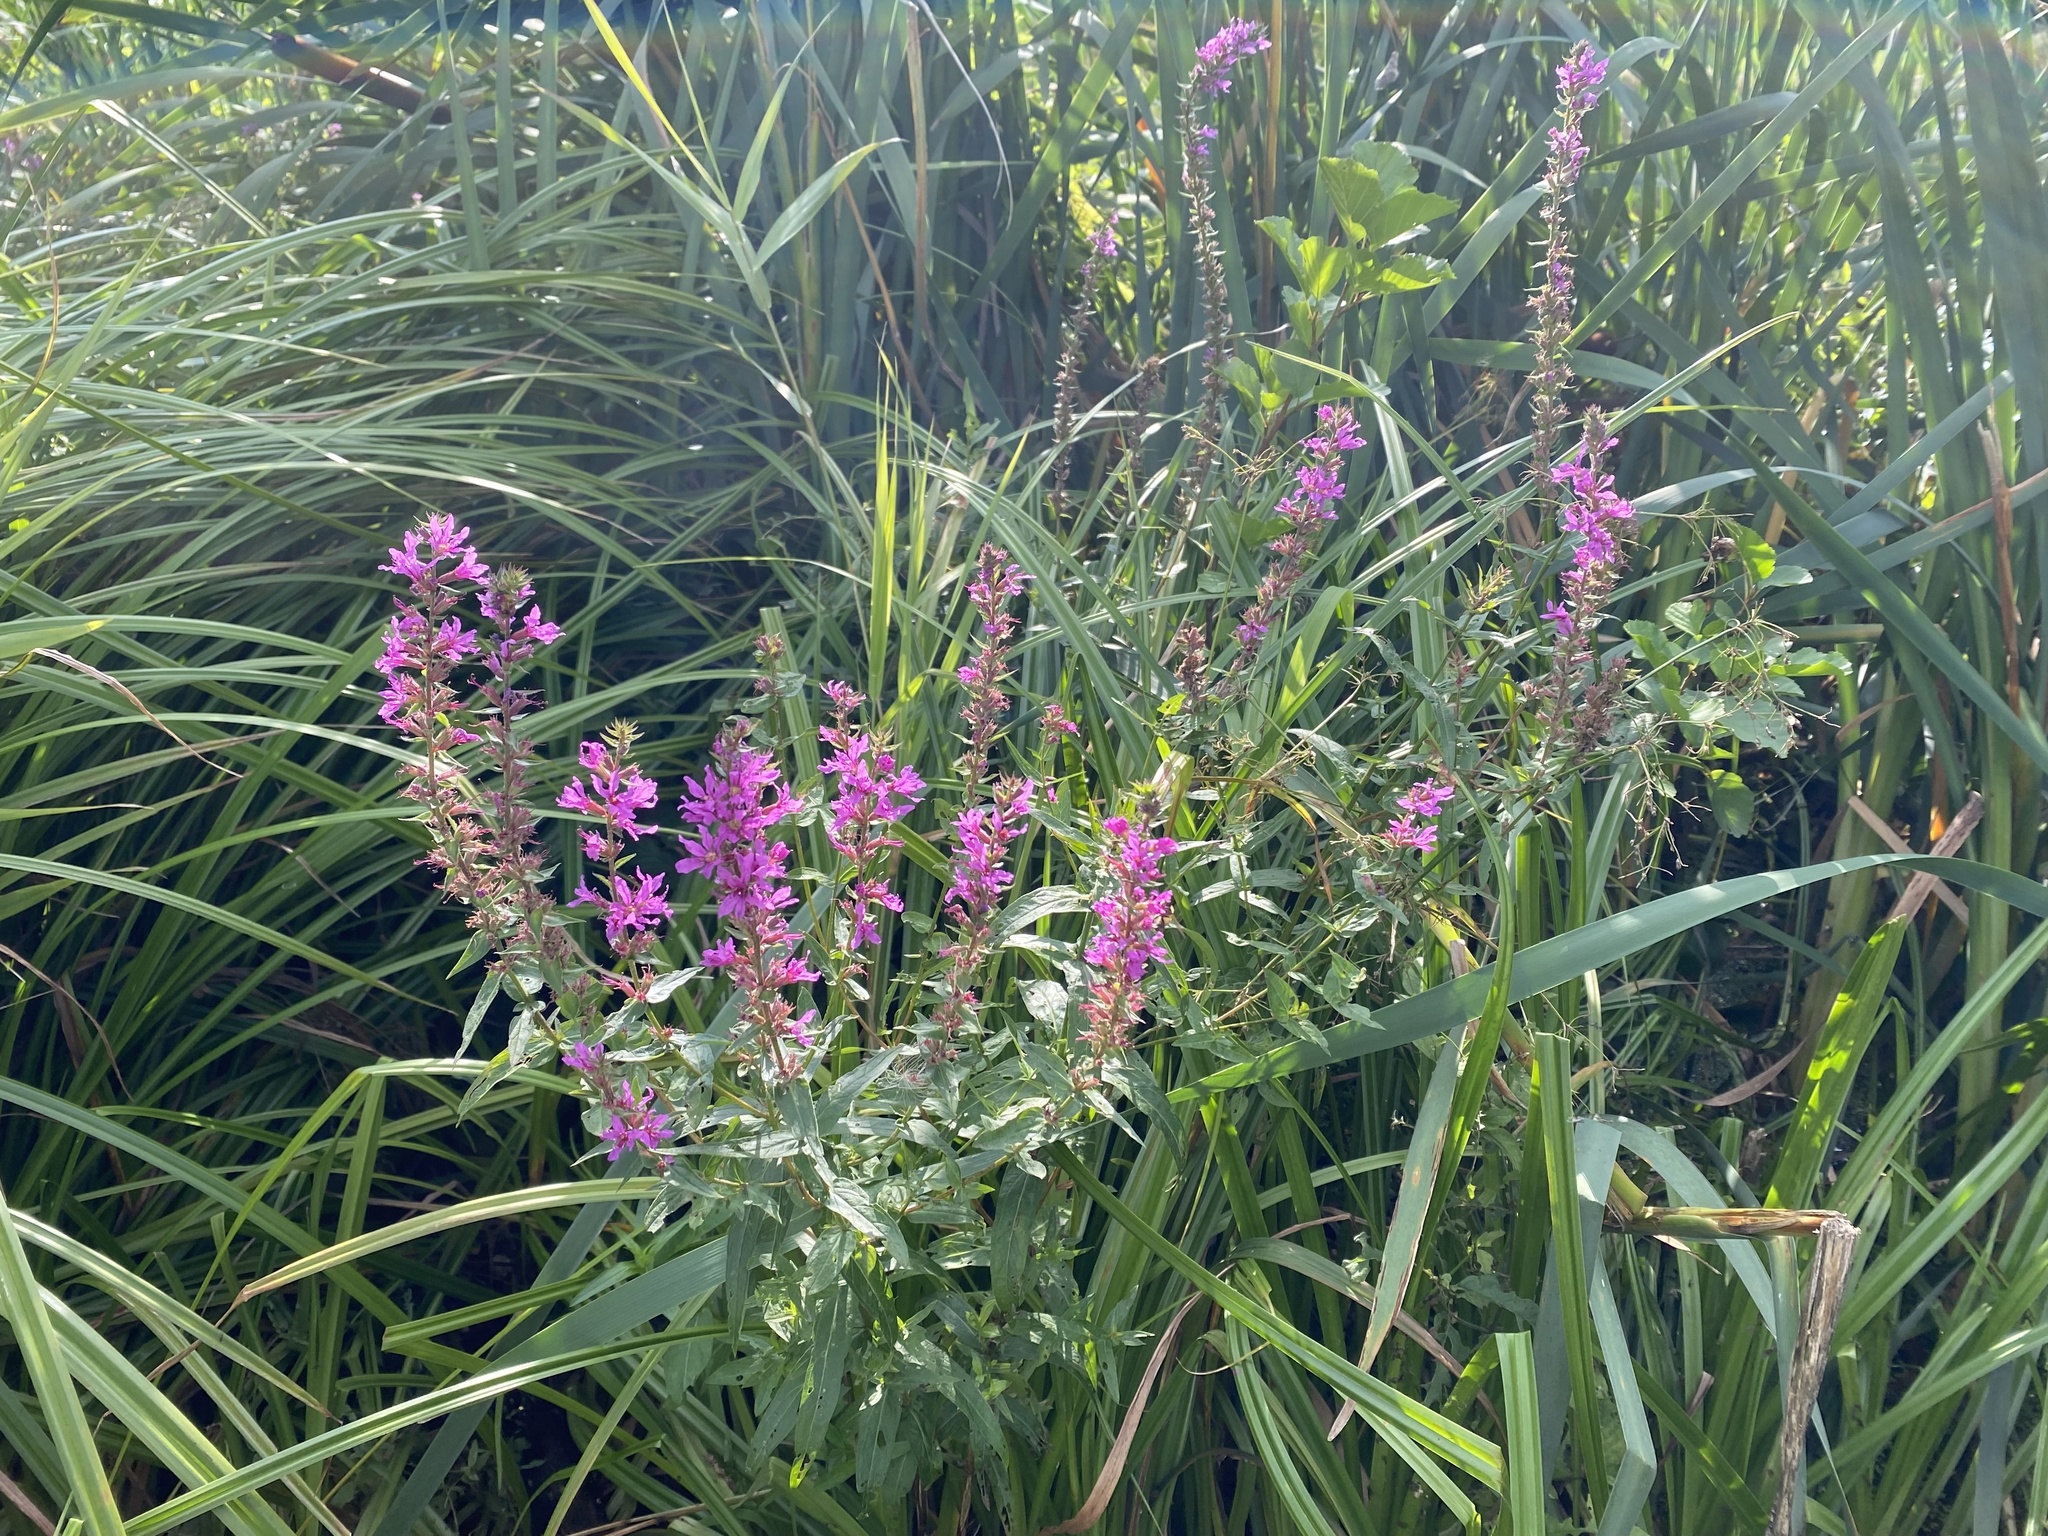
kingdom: Plantae
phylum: Tracheophyta
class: Magnoliopsida
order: Myrtales
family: Lythraceae
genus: Lythrum
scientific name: Lythrum salicaria
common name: Purple loosestrife
